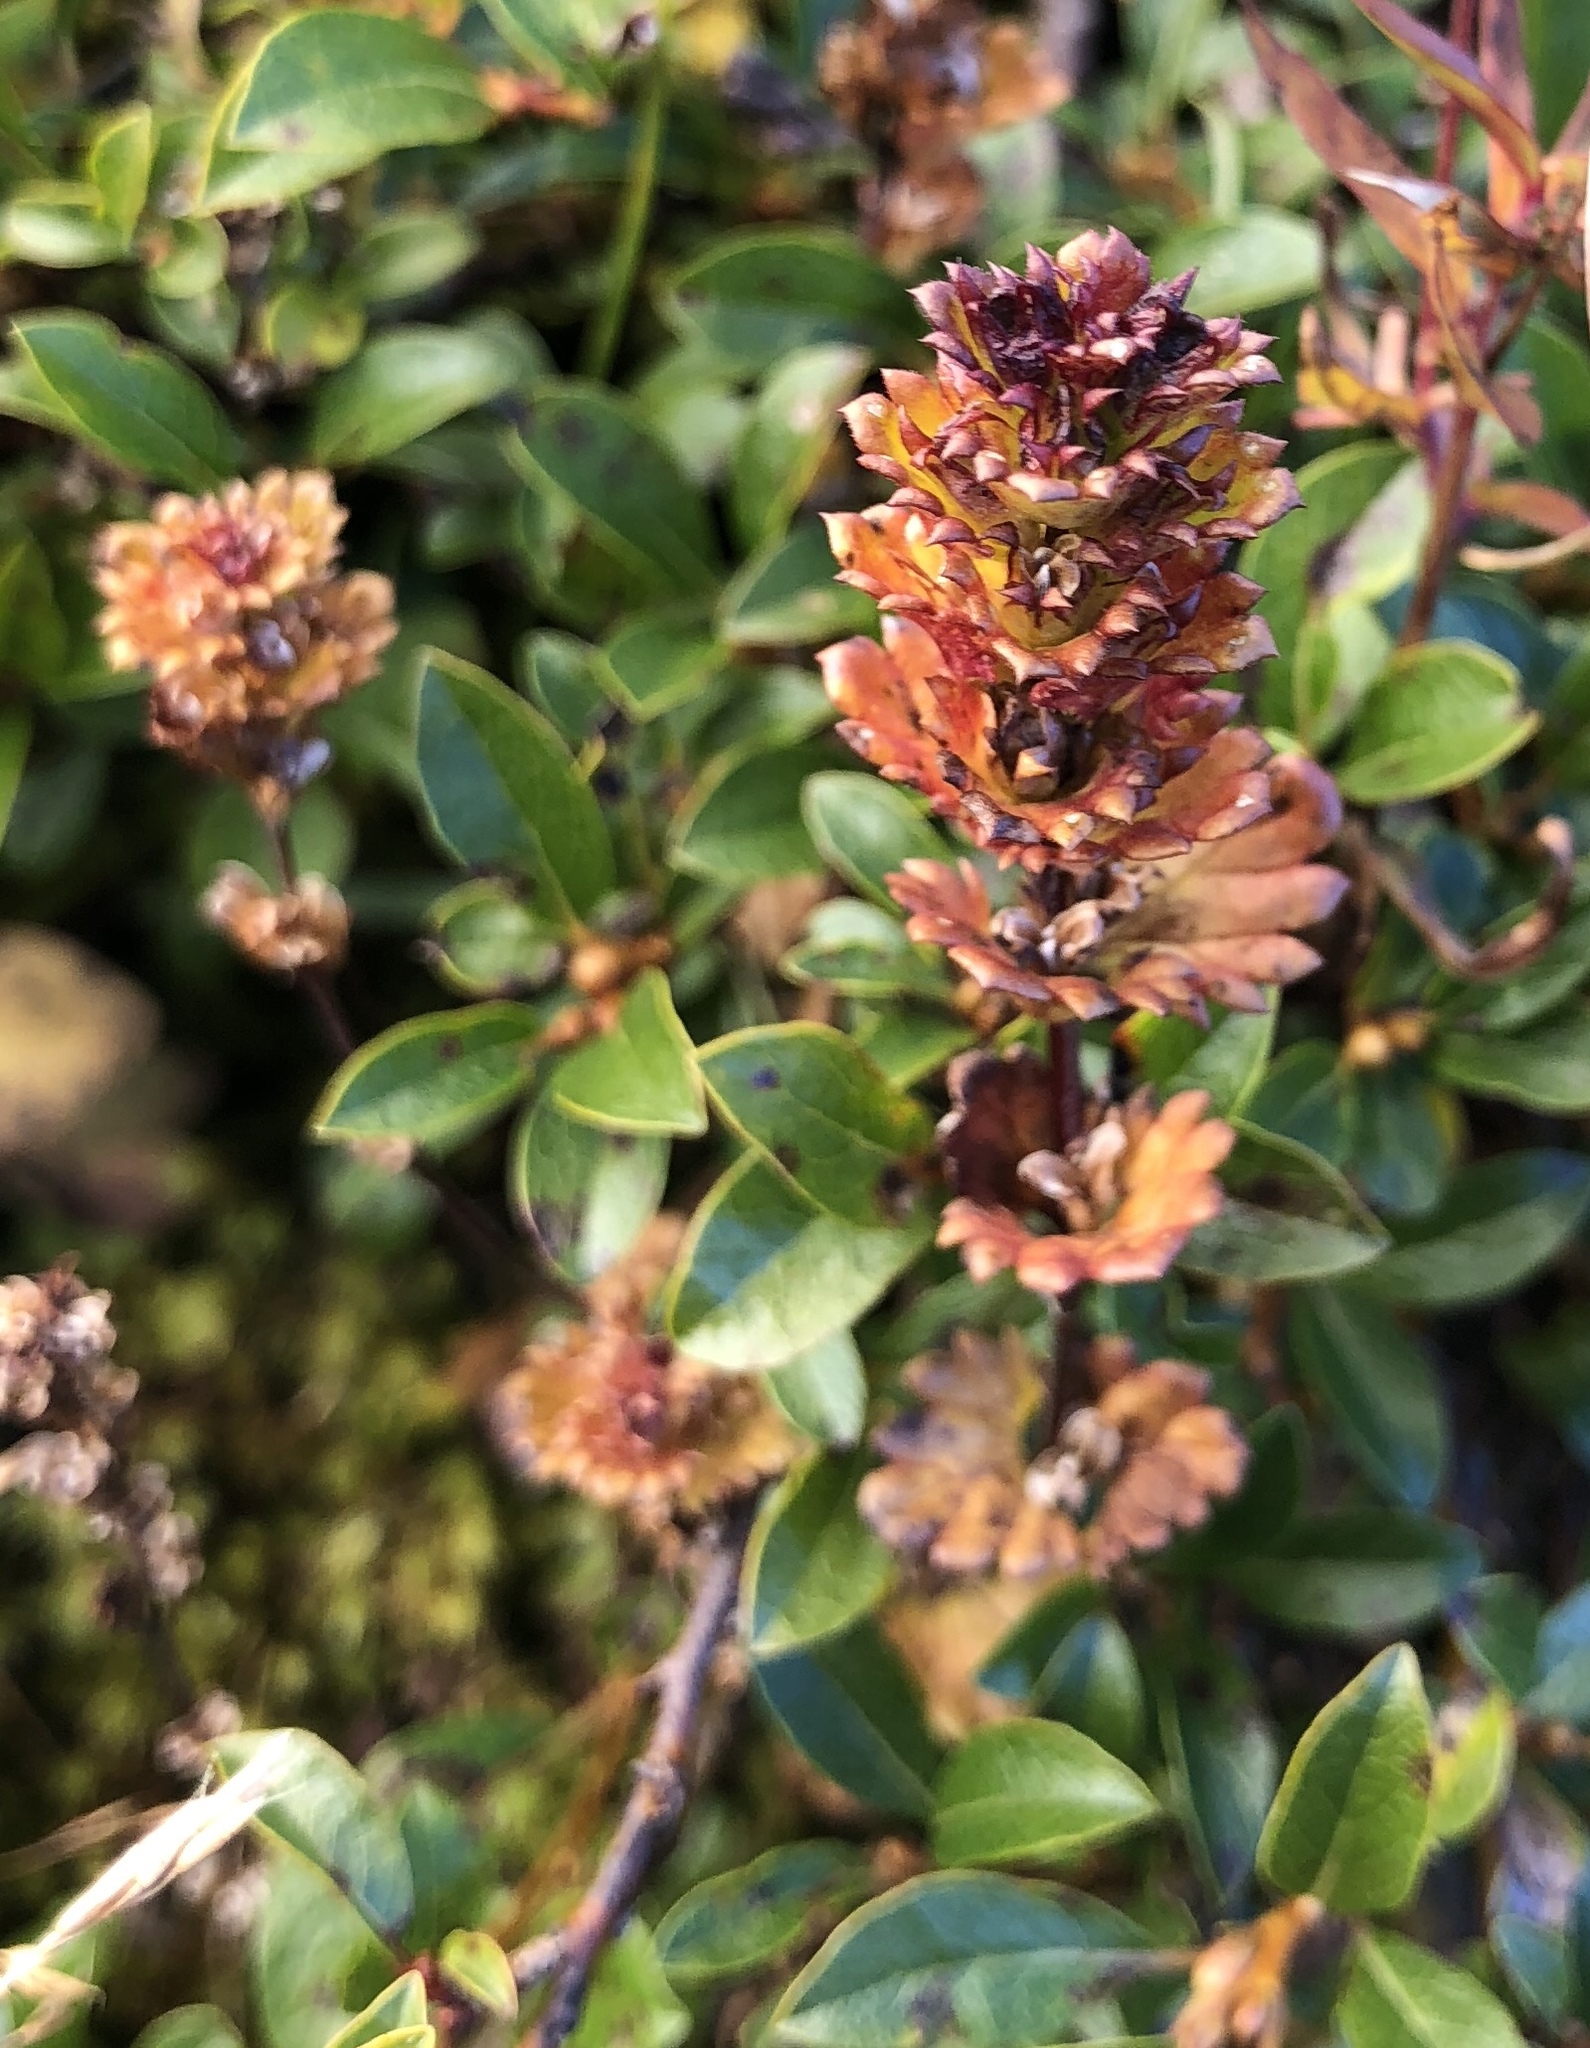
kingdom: Plantae
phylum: Tracheophyta
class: Magnoliopsida
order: Lamiales
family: Orobanchaceae
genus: Euphrasia
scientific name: Euphrasia oakesii
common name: Oakes' eyebright
